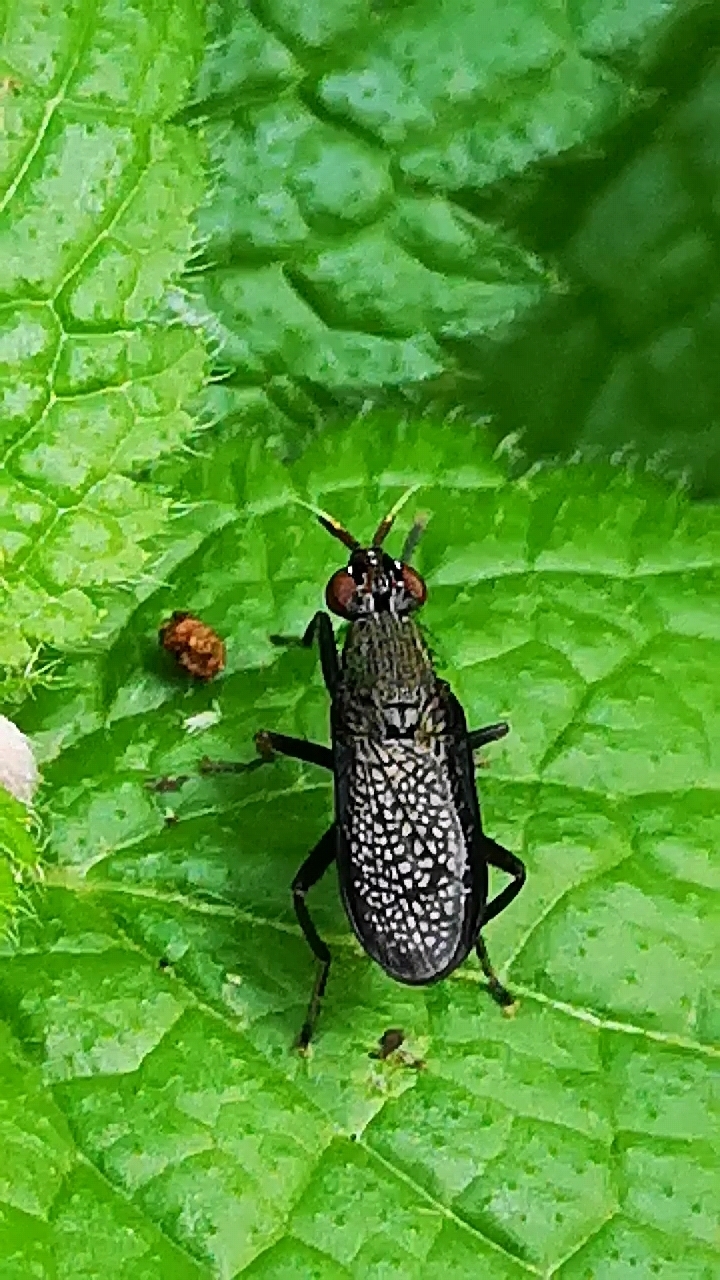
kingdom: Animalia
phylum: Arthropoda
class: Insecta
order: Diptera
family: Sciomyzidae
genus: Coremacera
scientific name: Coremacera marginata
